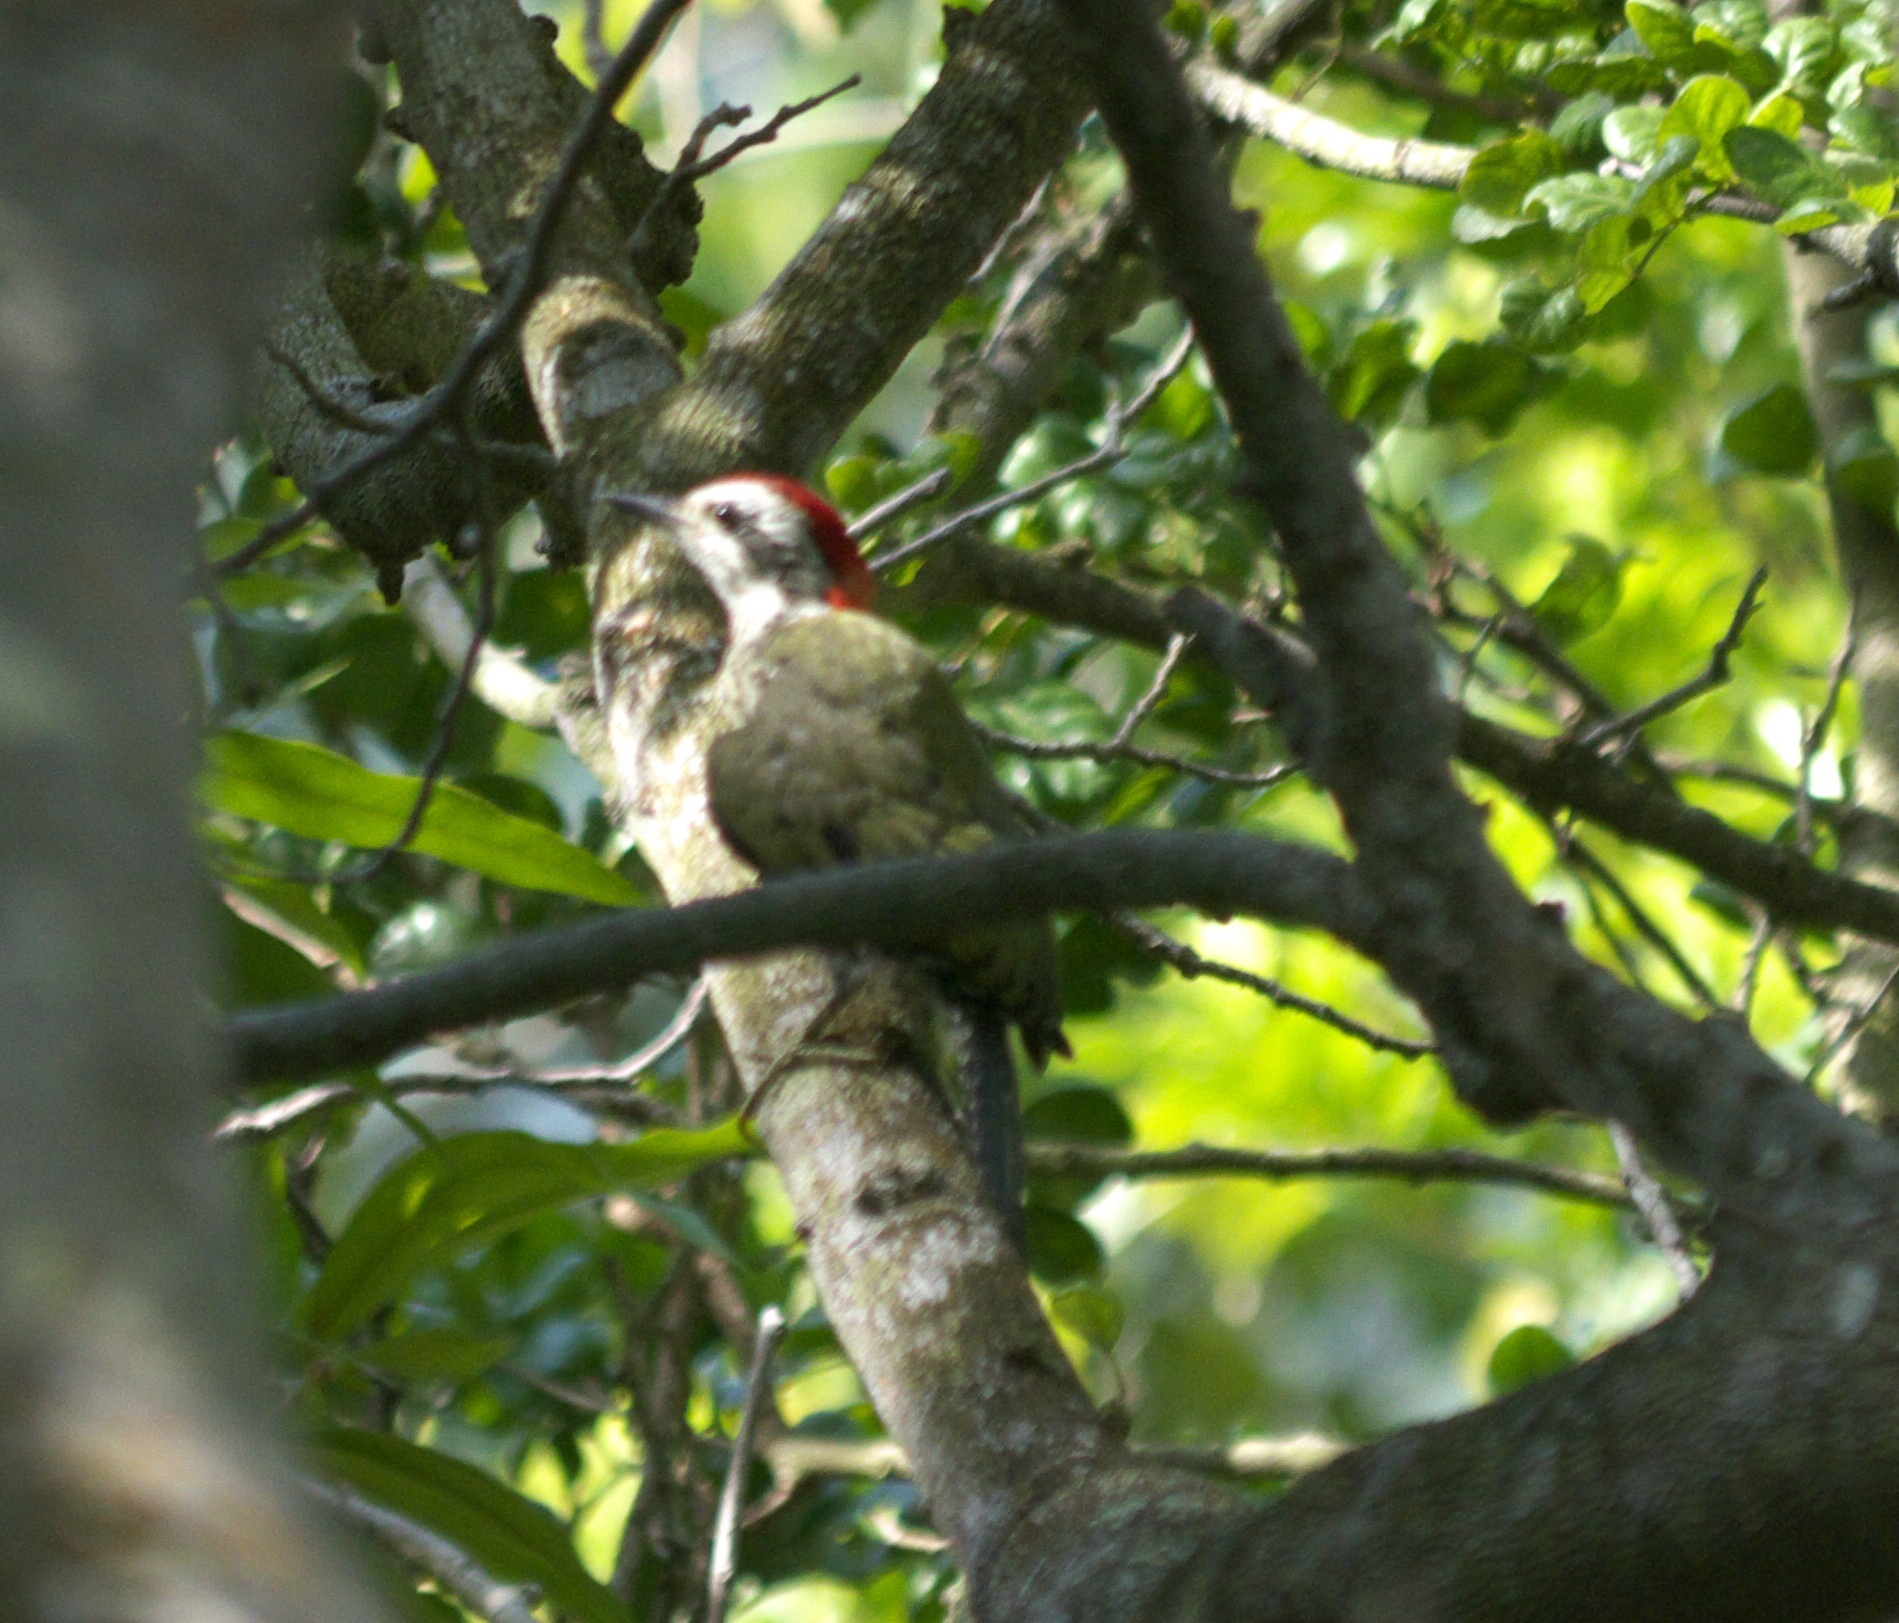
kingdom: Animalia
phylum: Chordata
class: Aves
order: Piciformes
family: Picidae
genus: Xiphidiopicus
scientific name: Xiphidiopicus percussus
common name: Cuban green woodpecker
